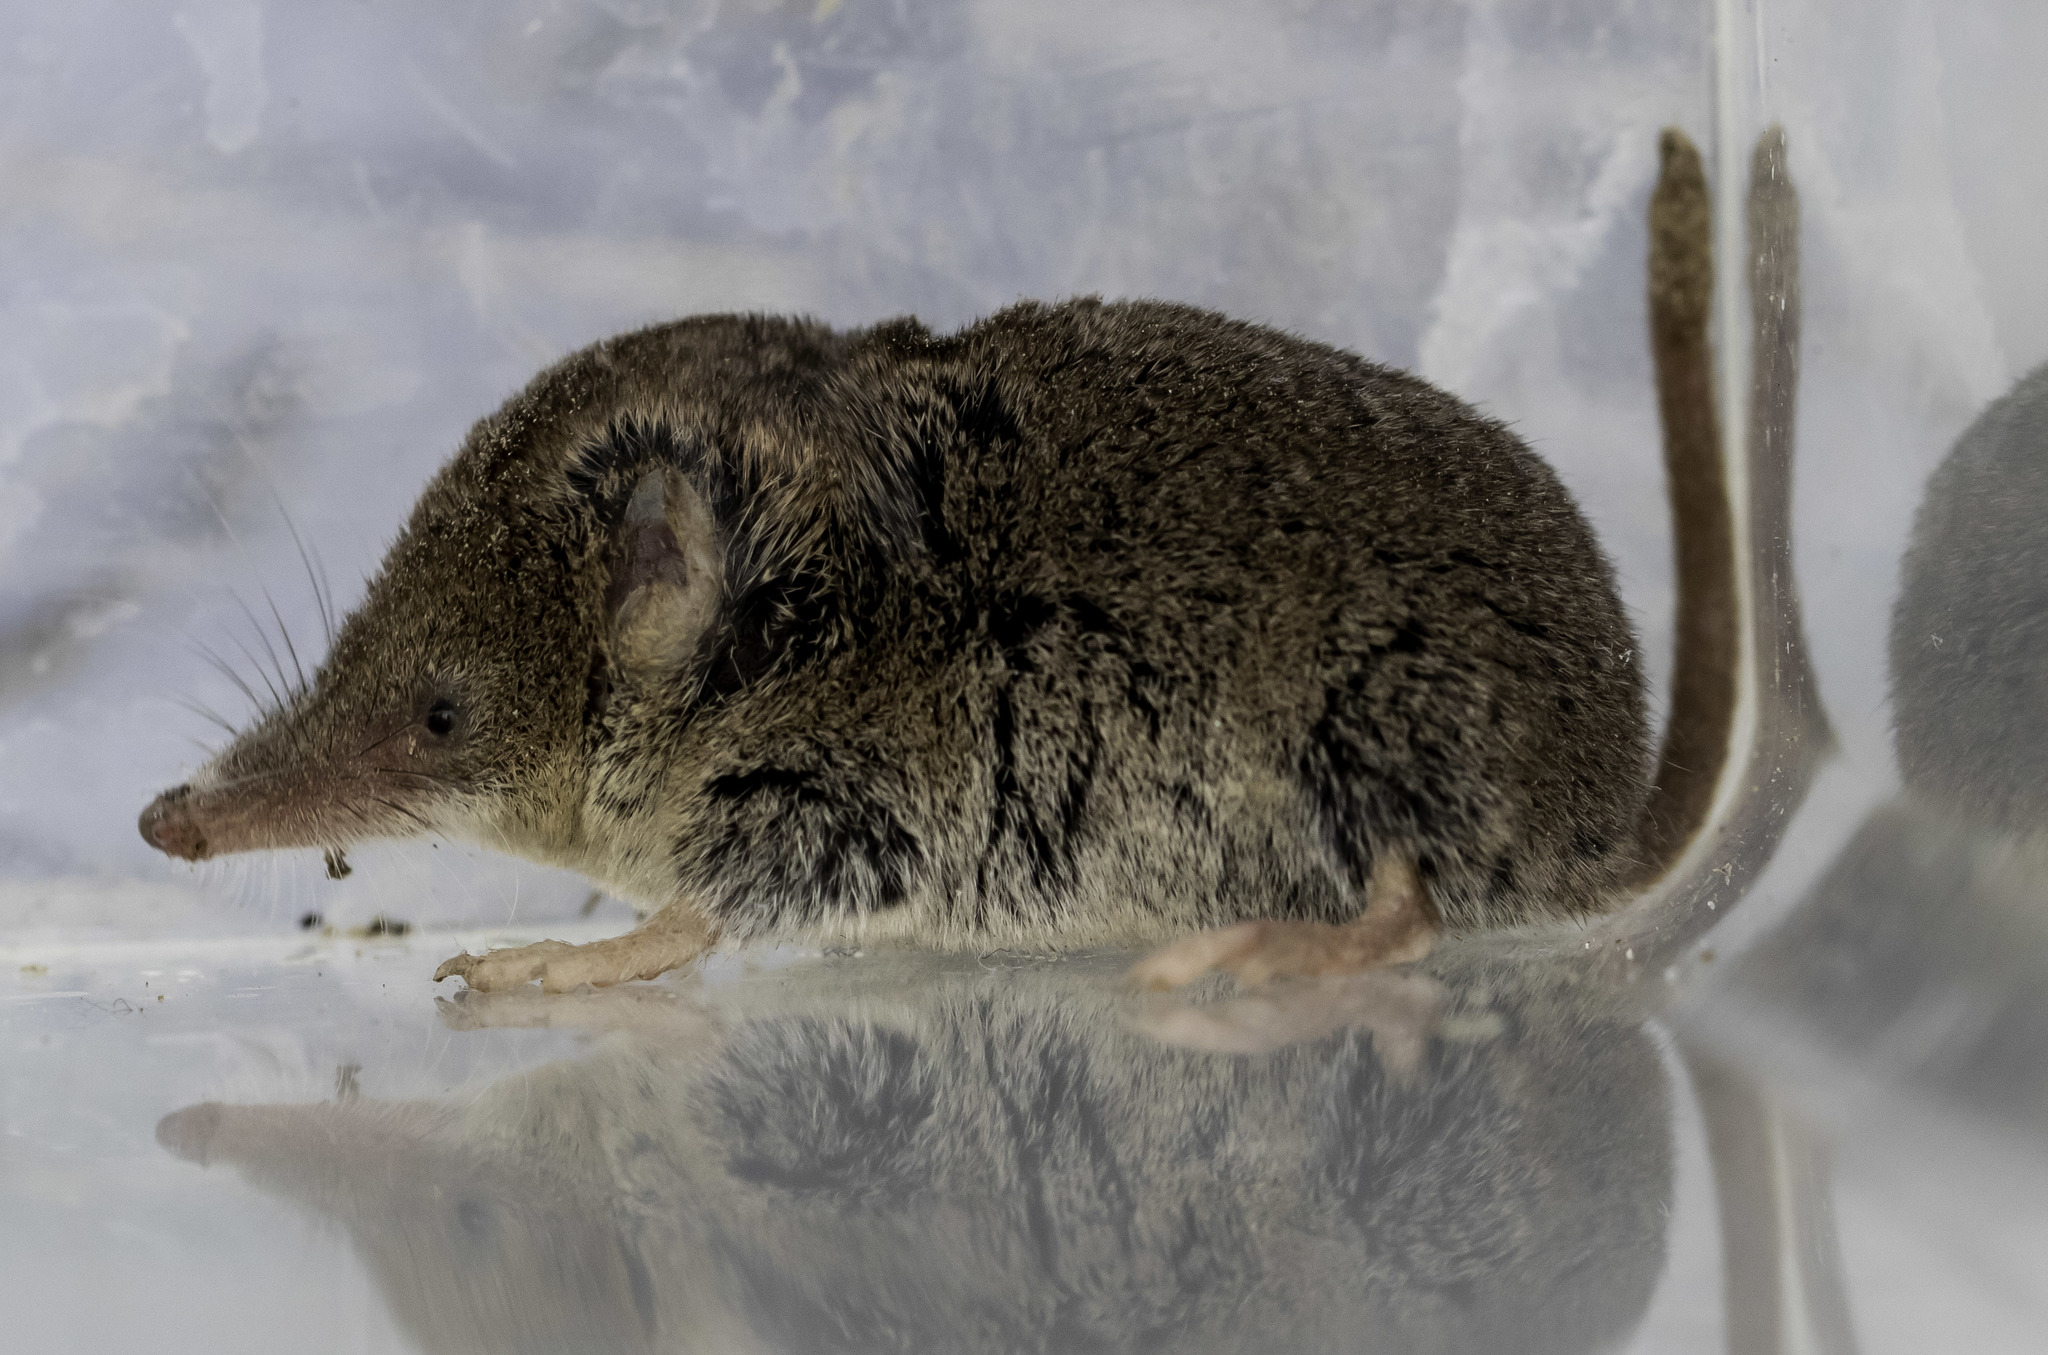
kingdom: Animalia
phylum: Chordata
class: Mammalia
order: Soricomorpha
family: Soricidae
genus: Sorex
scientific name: Sorex ornatus
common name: Ornate shrew
